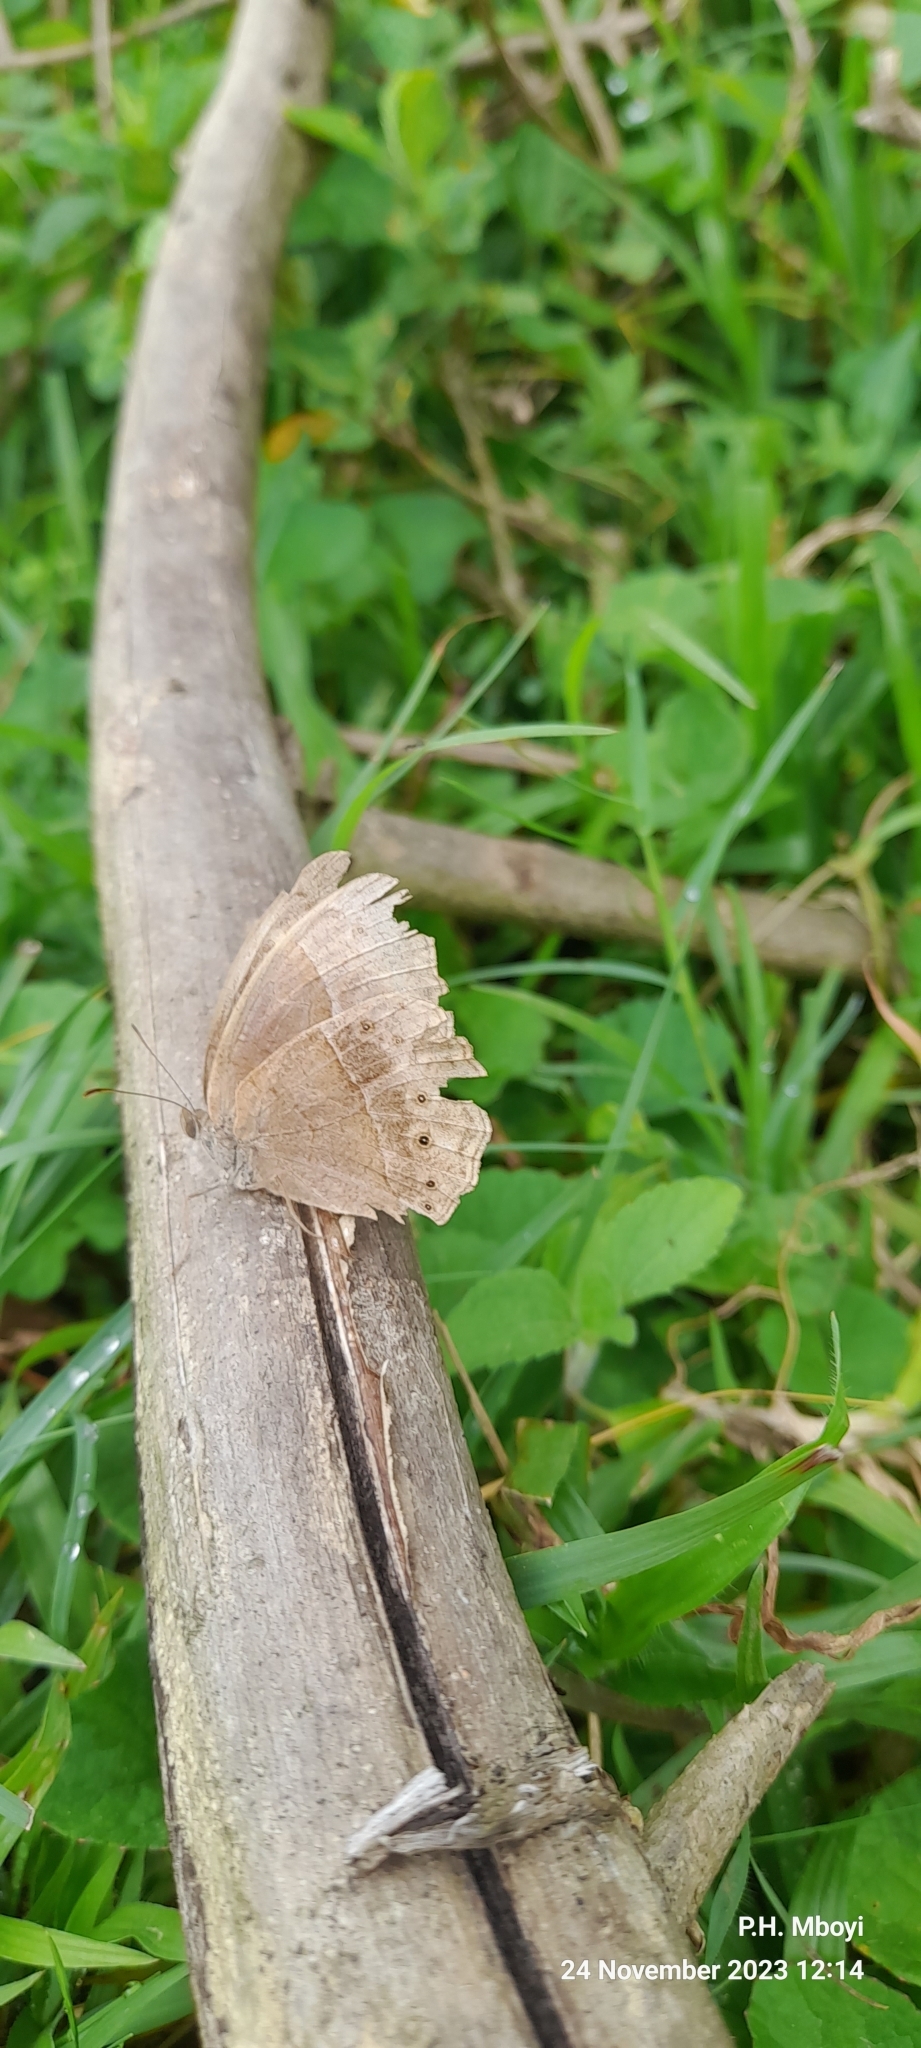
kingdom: Animalia
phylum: Arthropoda
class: Insecta
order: Lepidoptera
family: Nymphalidae
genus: Mycalesis
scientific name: Mycalesis rhacotis
